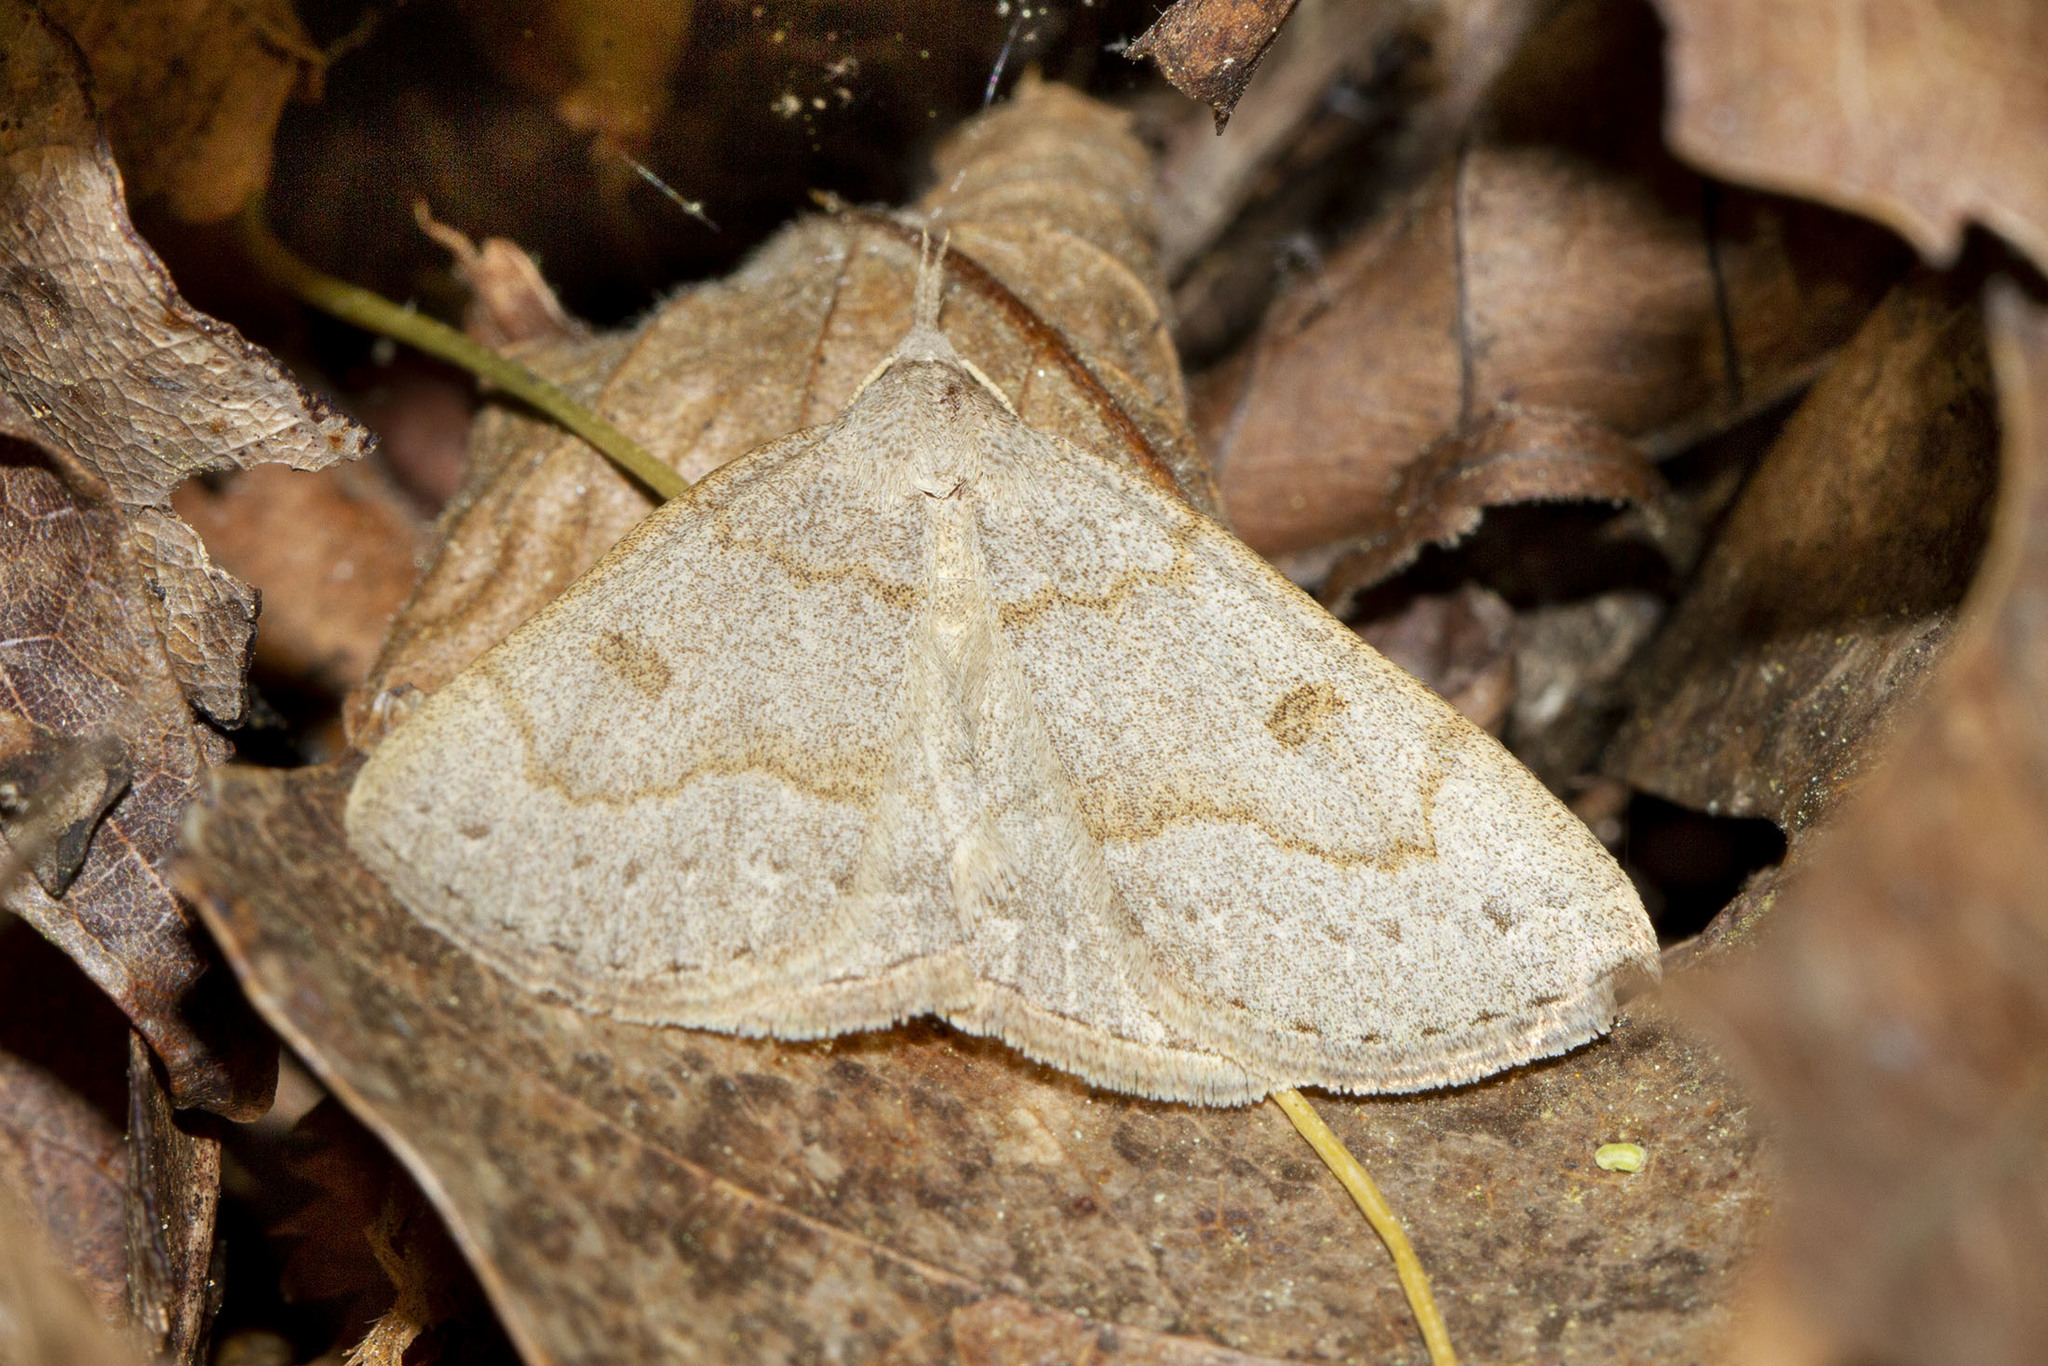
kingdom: Animalia
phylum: Arthropoda
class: Insecta
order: Lepidoptera
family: Erebidae
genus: Macrochilo
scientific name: Macrochilo morbidalis
